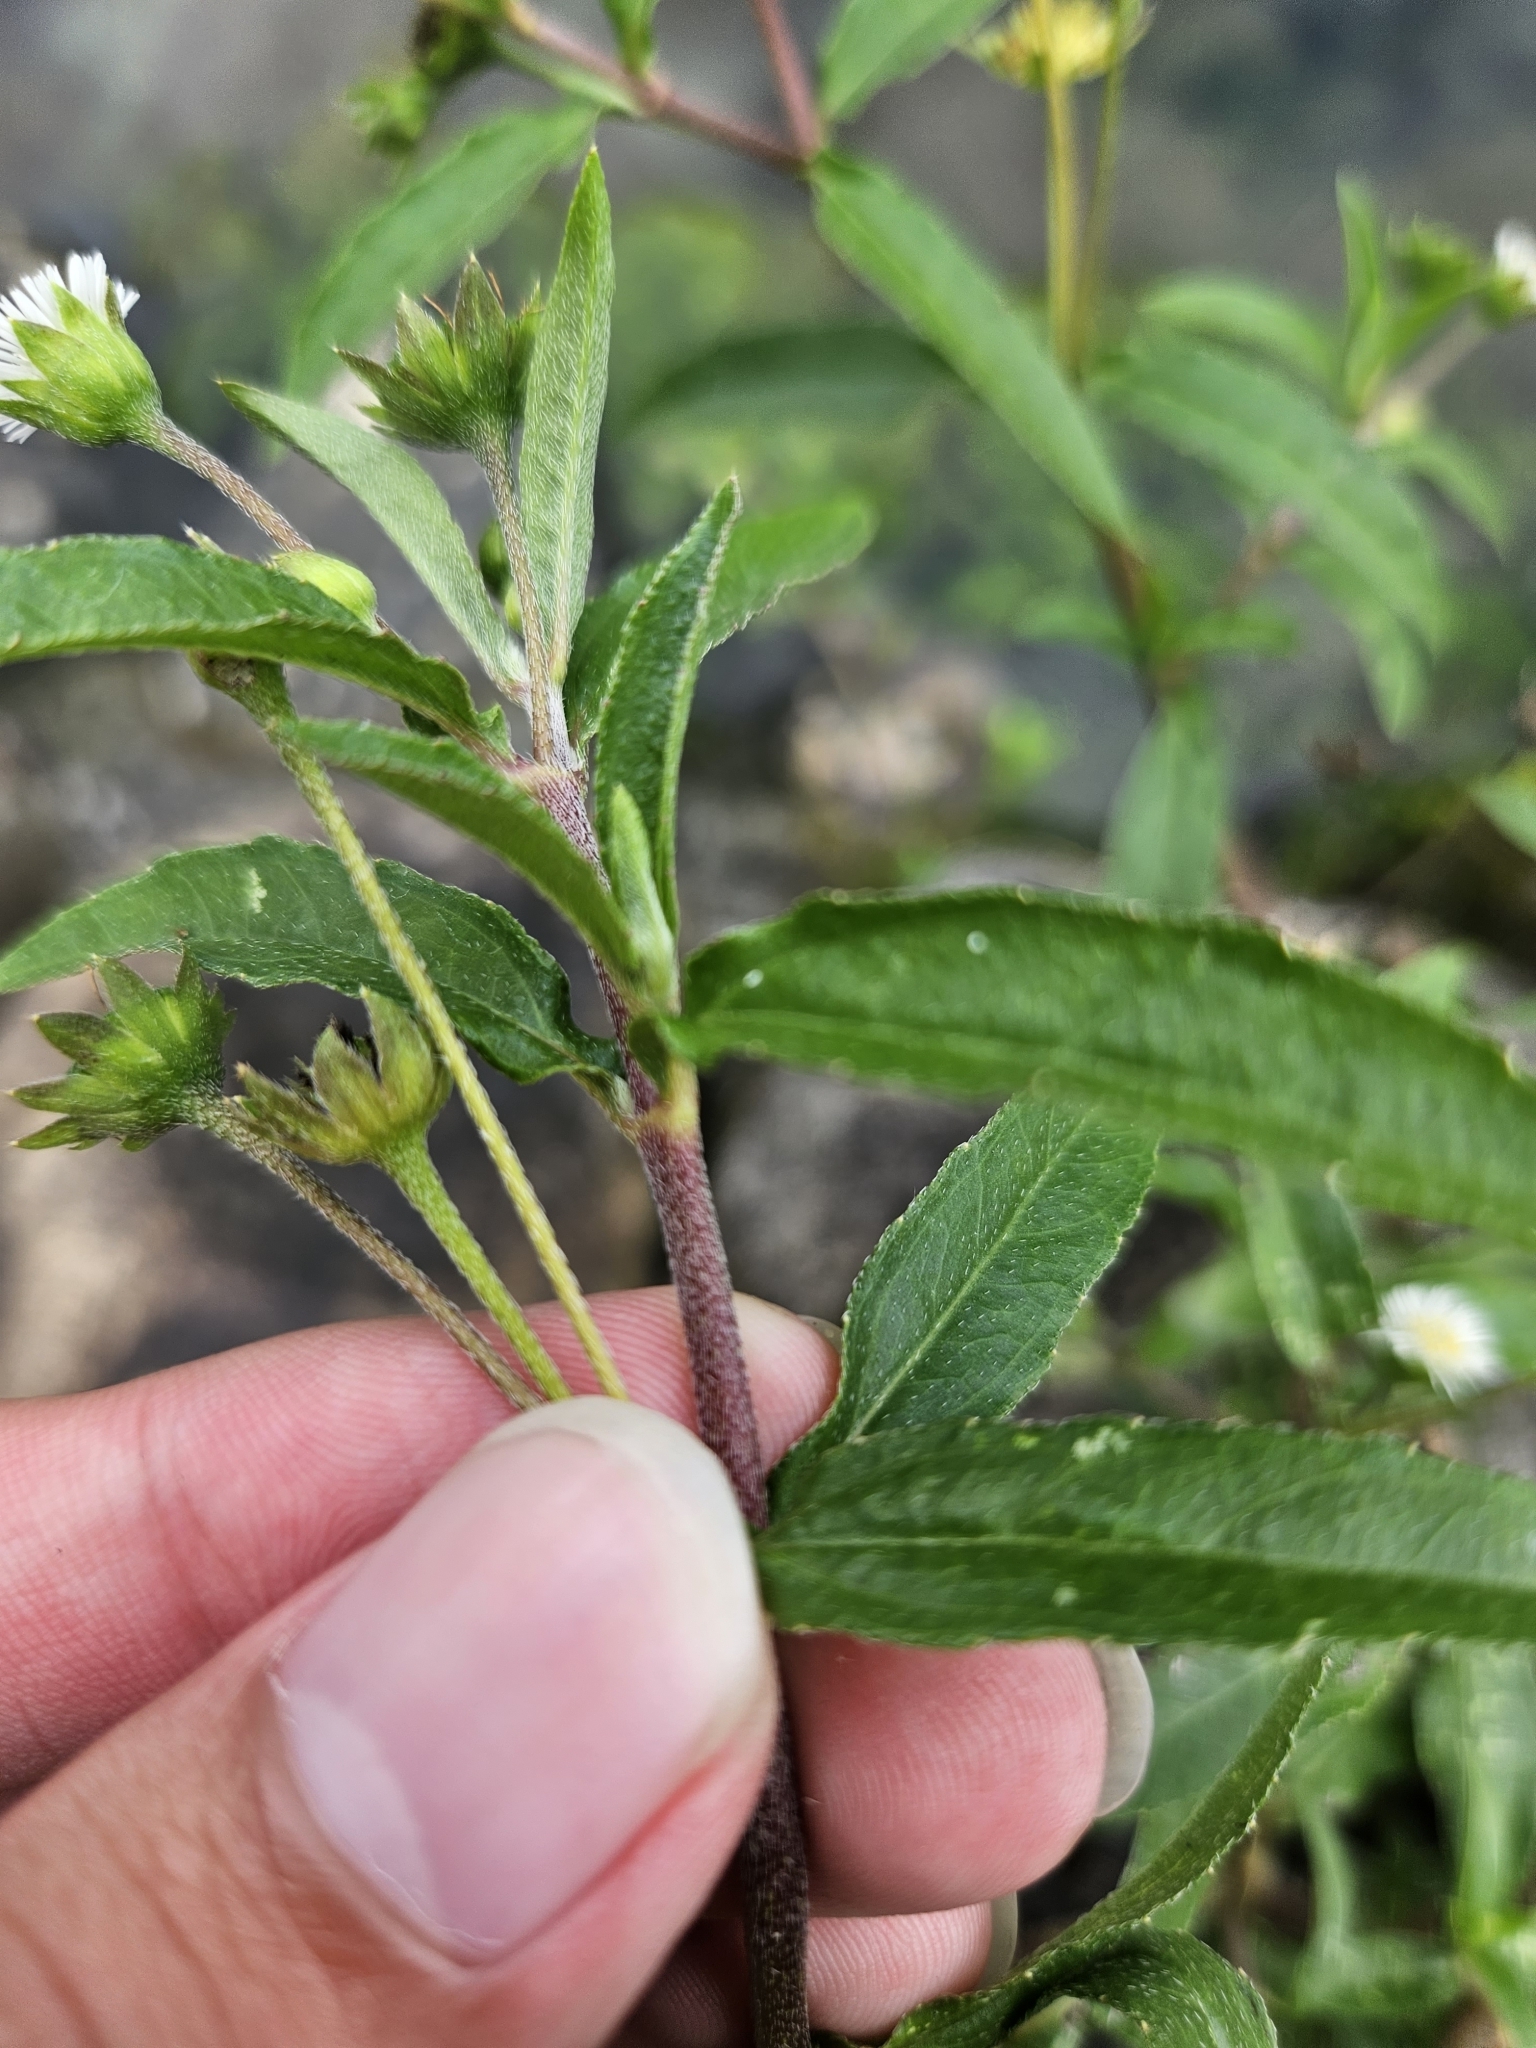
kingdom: Plantae
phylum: Tracheophyta
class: Magnoliopsida
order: Asterales
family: Asteraceae
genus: Eclipta
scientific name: Eclipta prostrata
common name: False daisy
